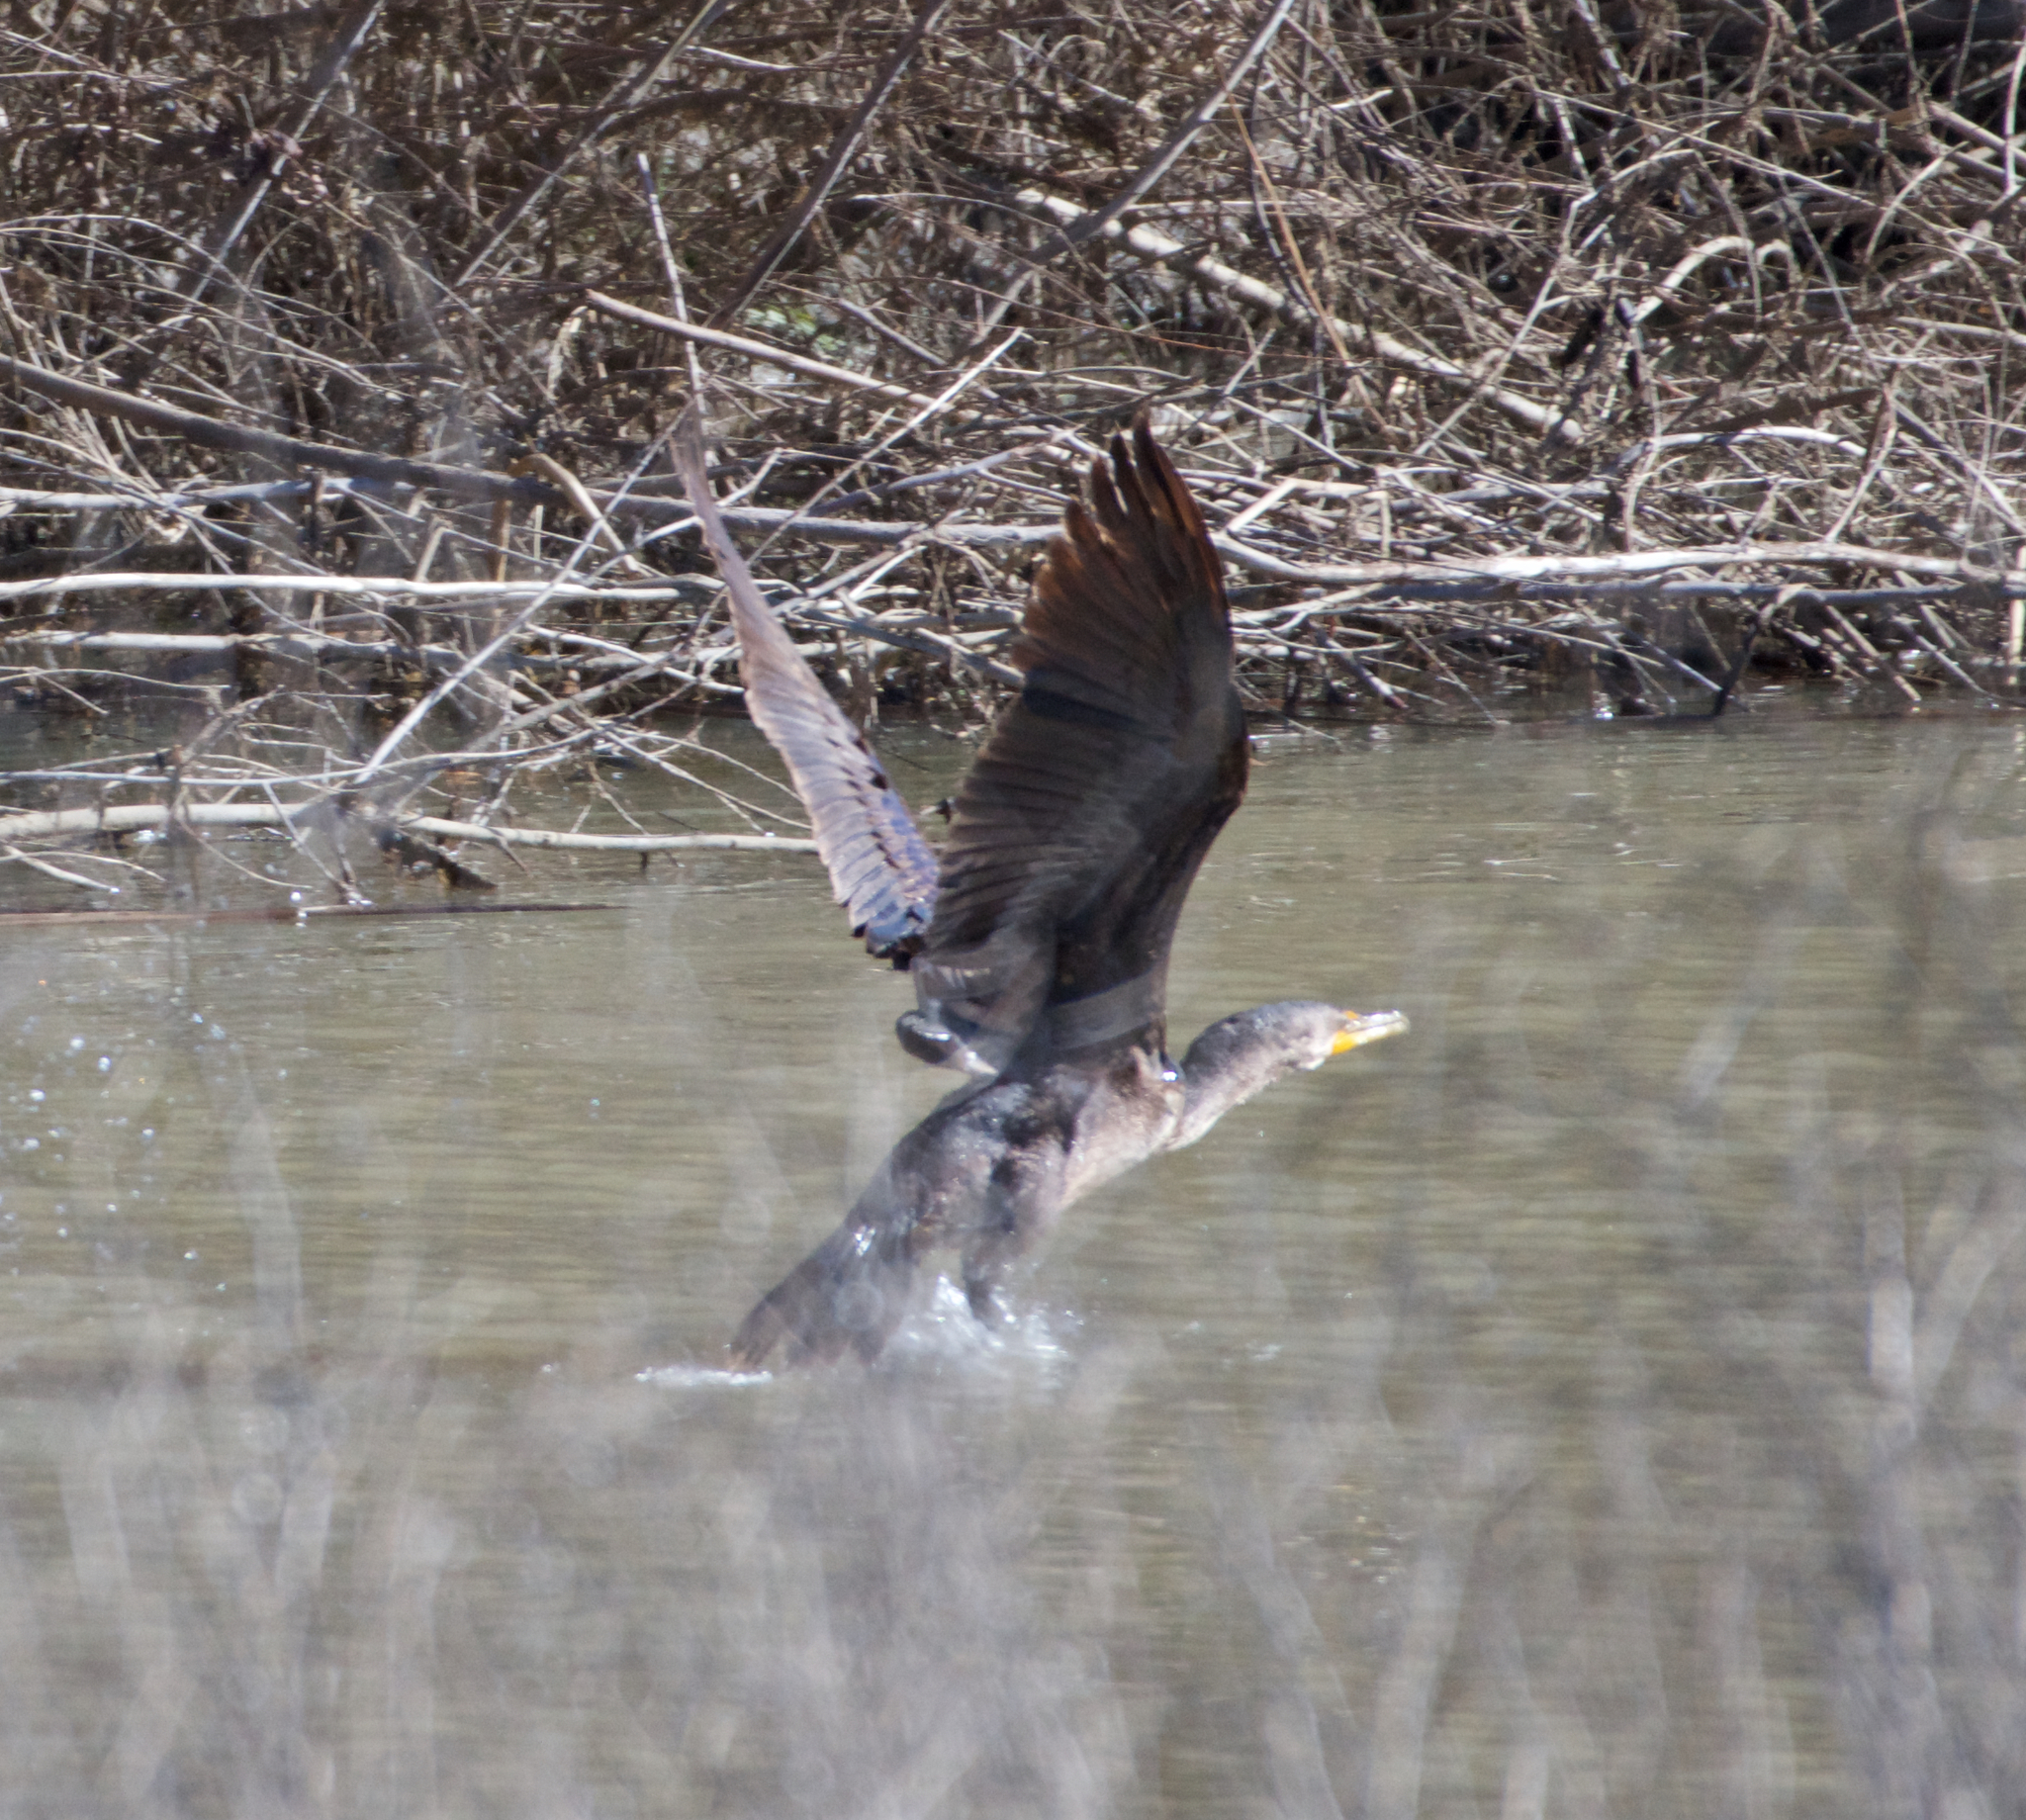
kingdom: Animalia
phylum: Chordata
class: Aves
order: Suliformes
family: Phalacrocoracidae
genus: Phalacrocorax
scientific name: Phalacrocorax auritus
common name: Double-crested cormorant
